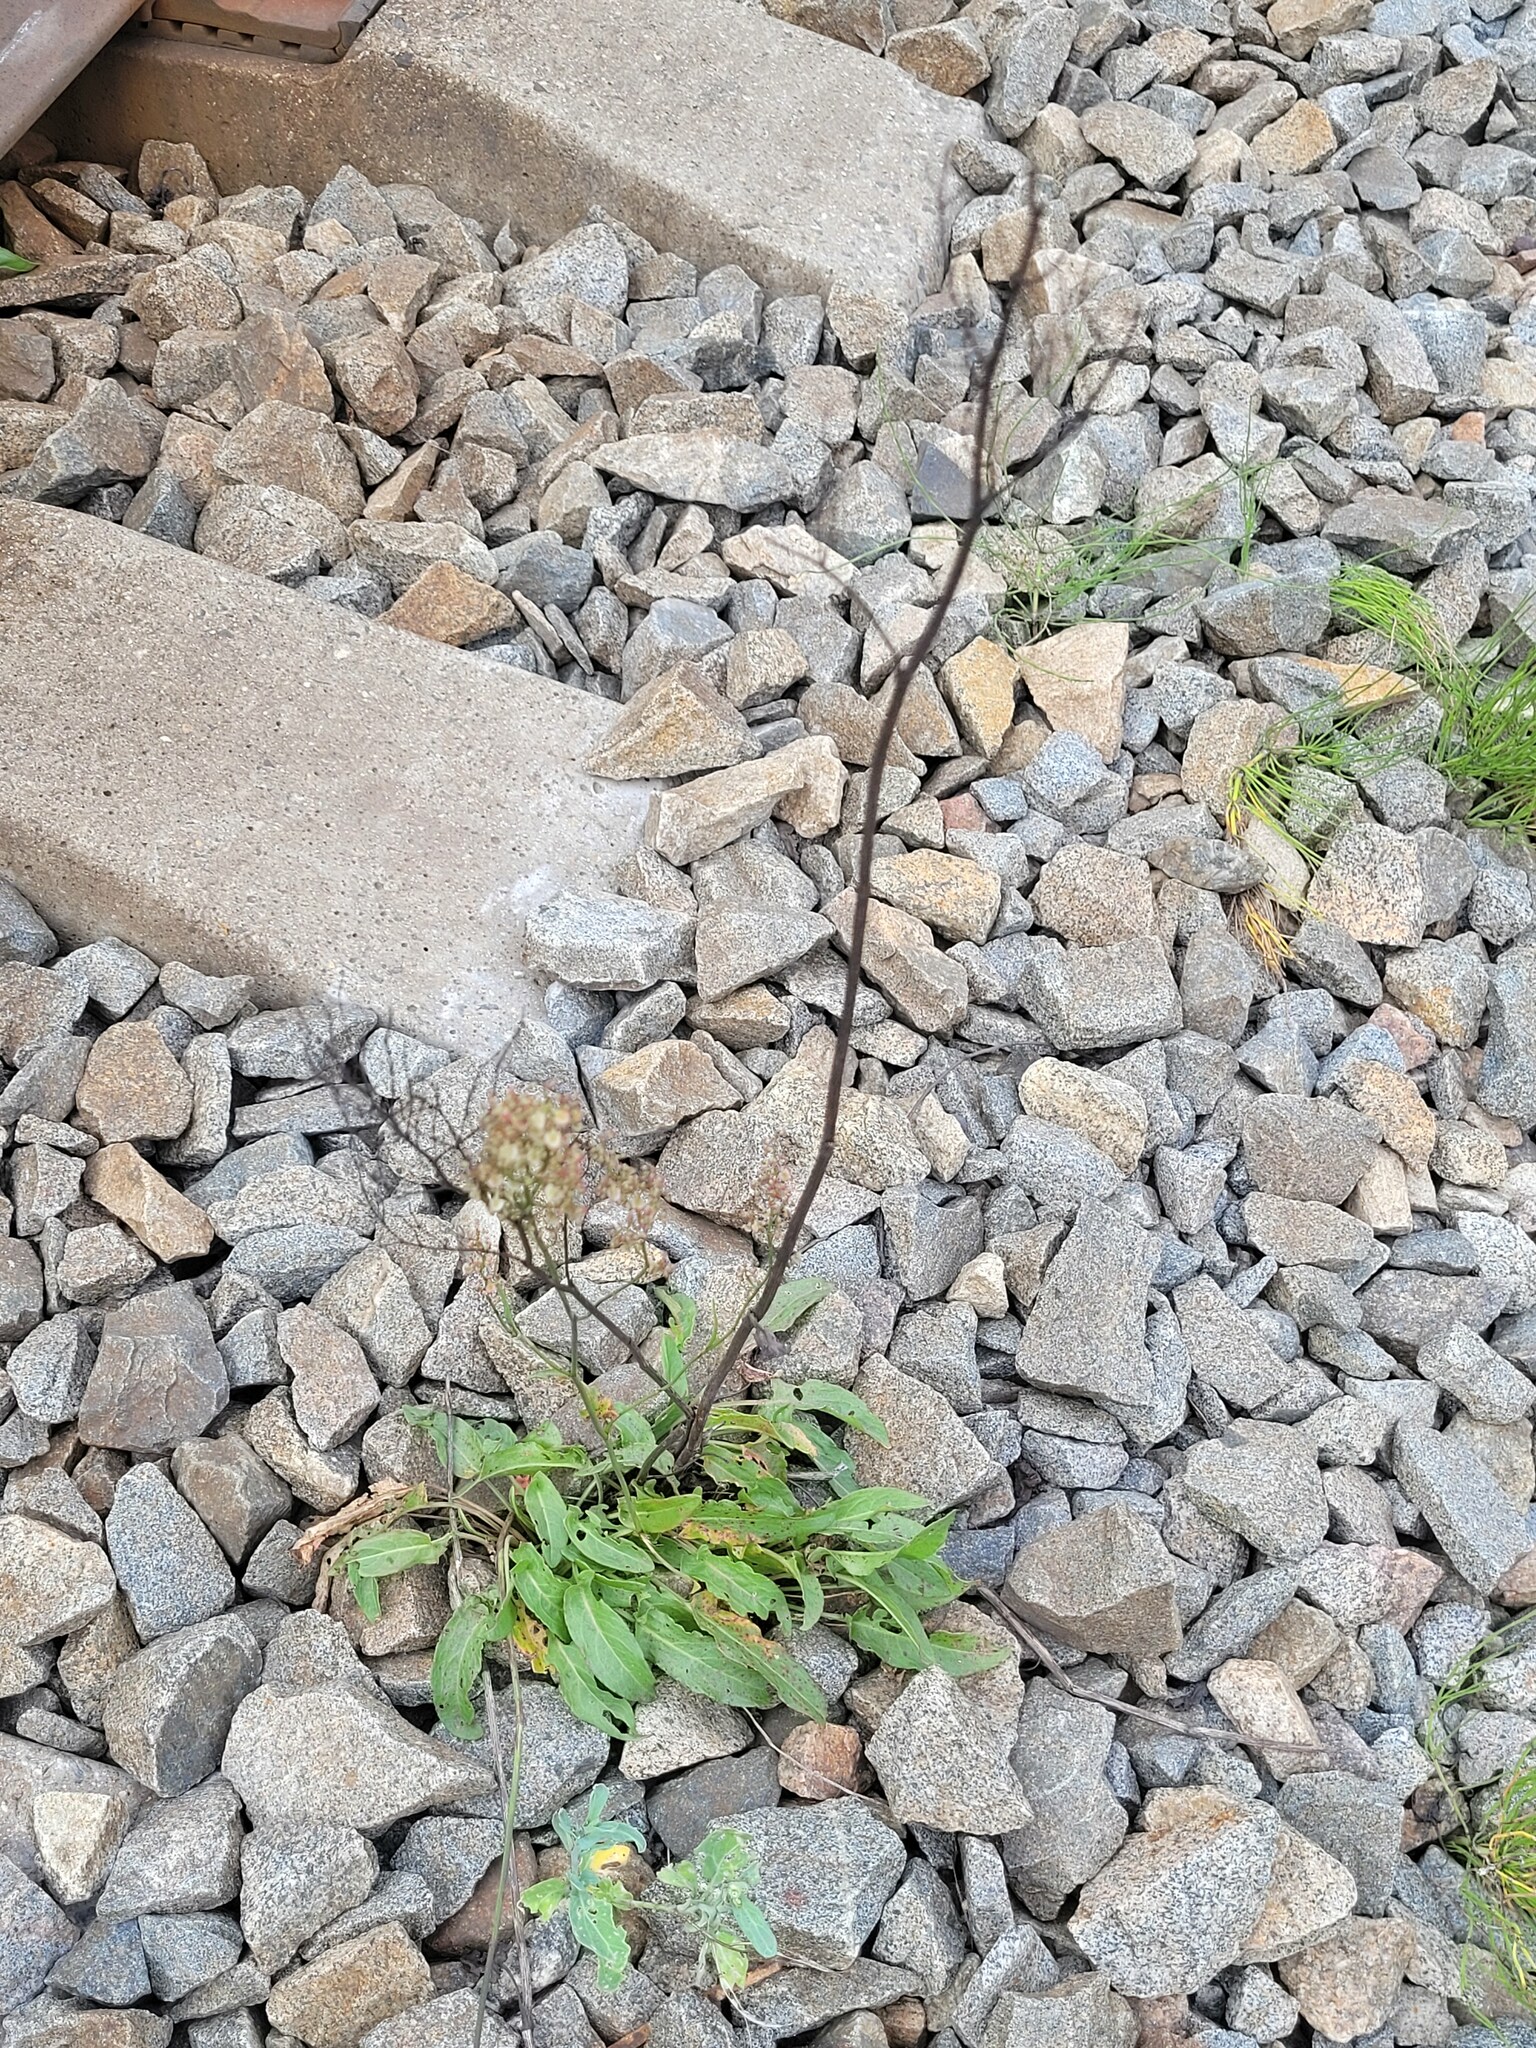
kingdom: Plantae
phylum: Tracheophyta
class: Magnoliopsida
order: Caryophyllales
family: Polygonaceae
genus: Rumex
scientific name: Rumex thyrsiflorus
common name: Garden sorrel
